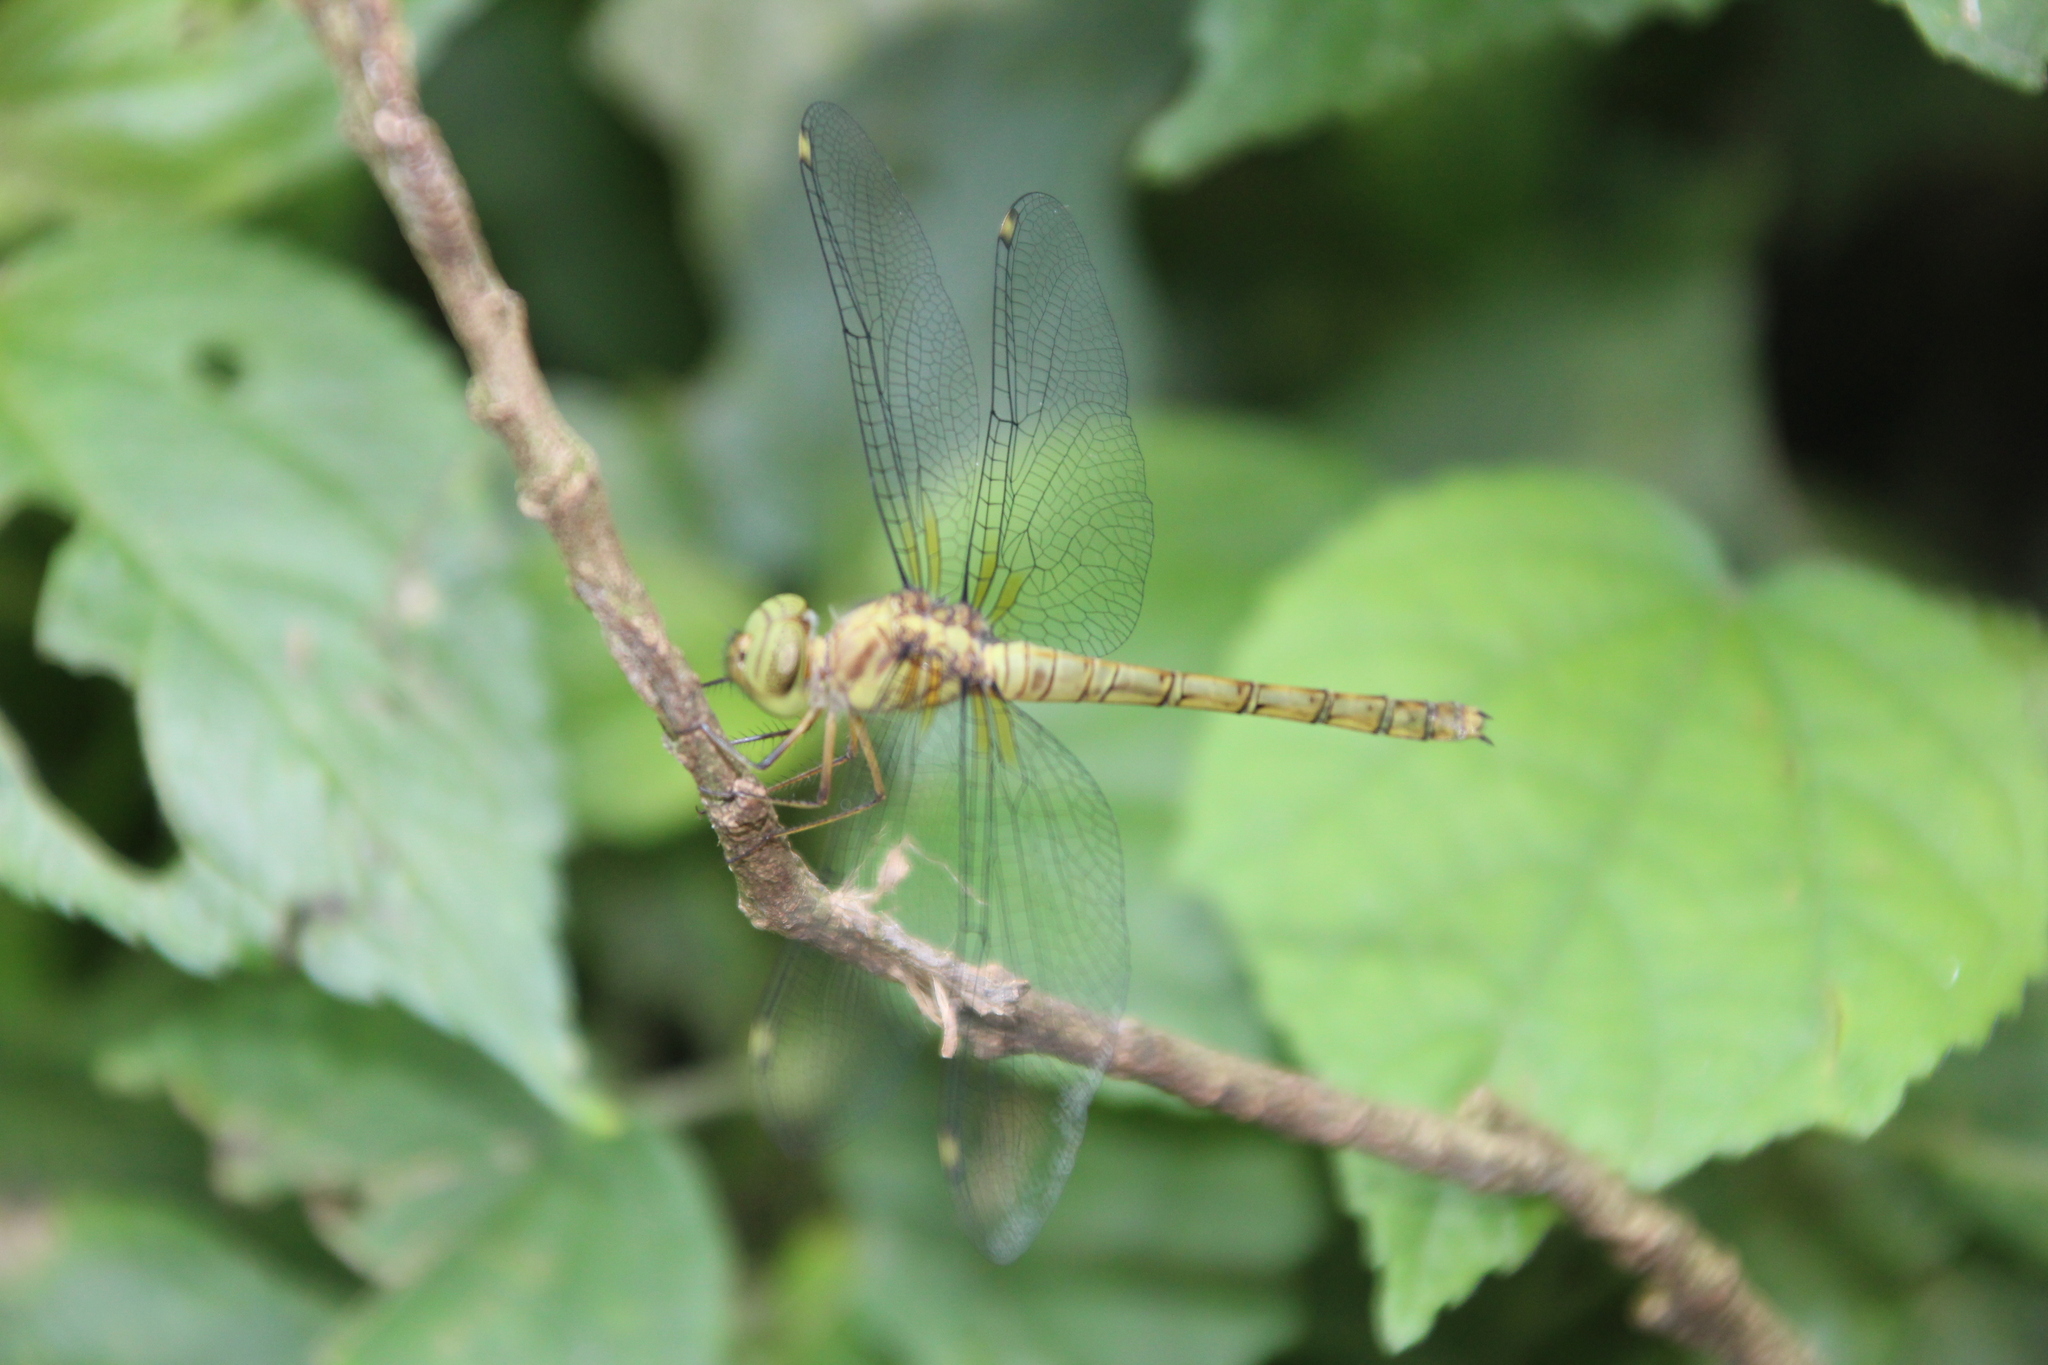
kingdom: Animalia
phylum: Arthropoda
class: Insecta
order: Odonata
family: Libellulidae
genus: Parazyxomma
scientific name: Parazyxomma flavicans
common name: Banded duskdarter
